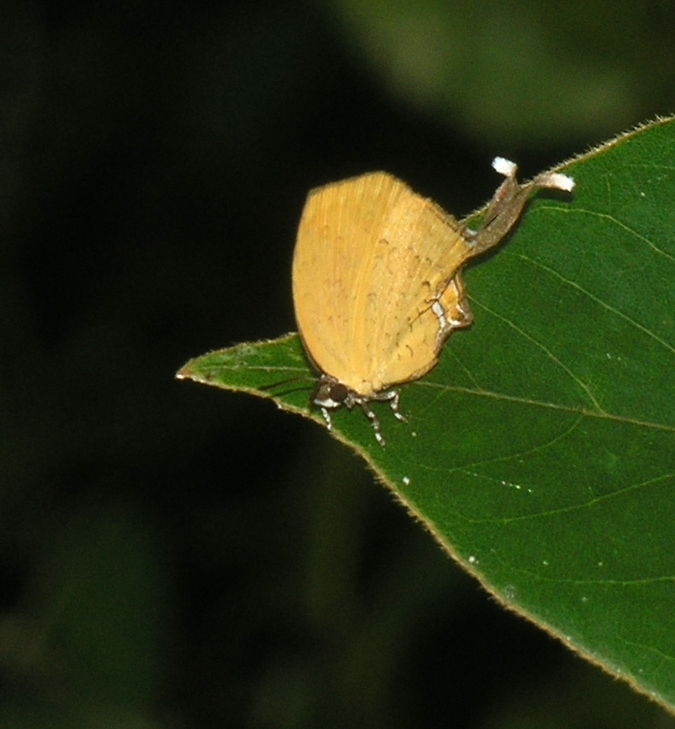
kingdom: Animalia
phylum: Arthropoda
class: Insecta
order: Lepidoptera
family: Lycaenidae
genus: Yasoda
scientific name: Yasoda tripunctata
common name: Branded yamfly
